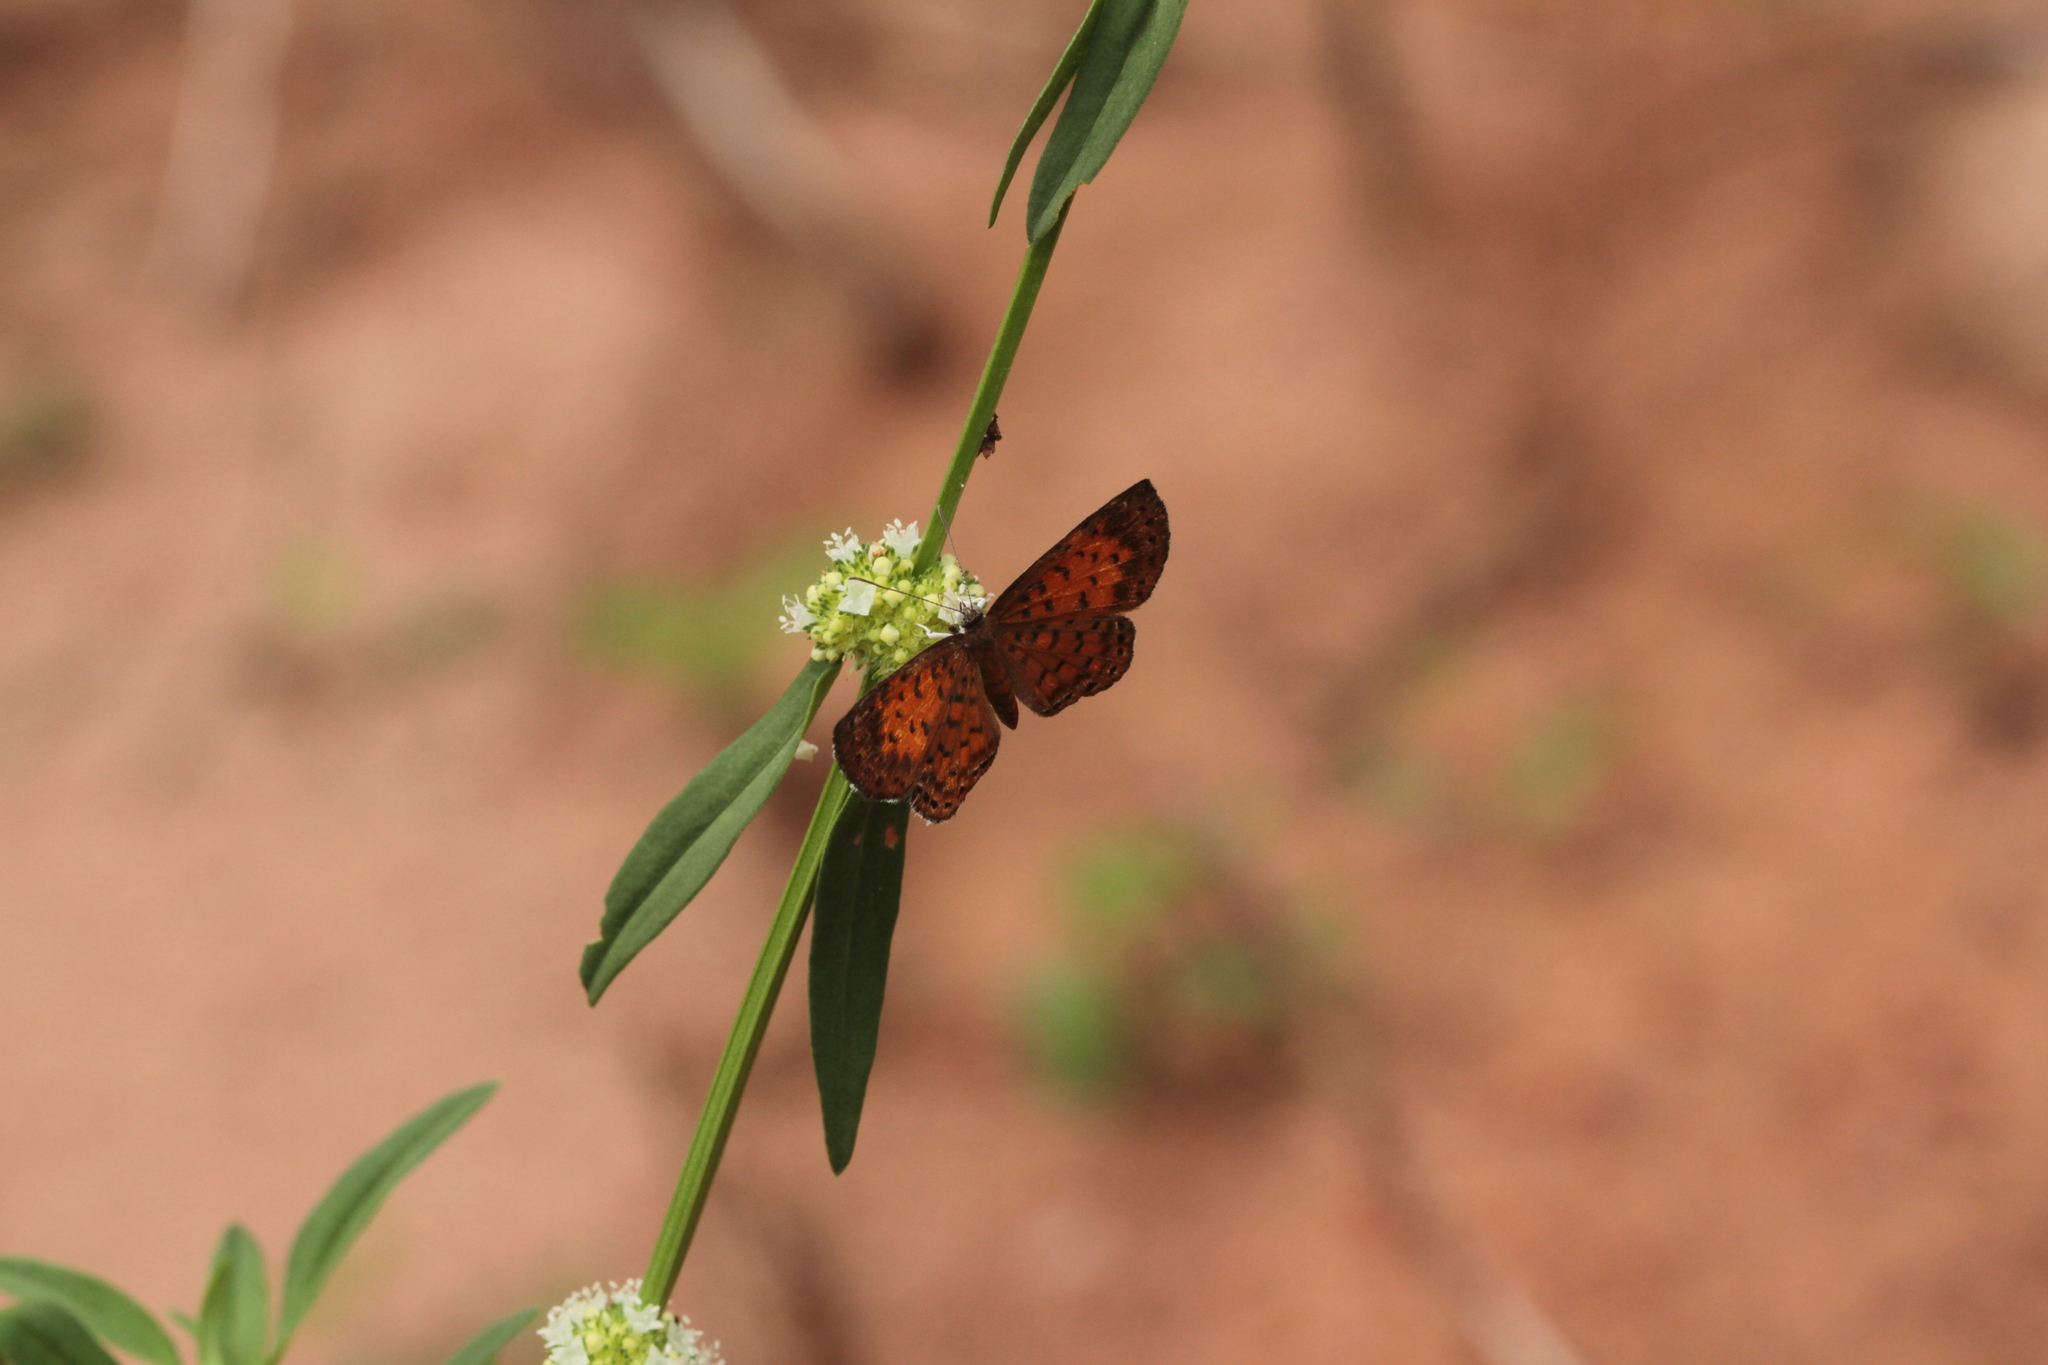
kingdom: Animalia
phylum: Arthropoda
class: Insecta
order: Lepidoptera
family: Riodinidae
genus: Polystichtis
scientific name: Polystichtis lucianus
